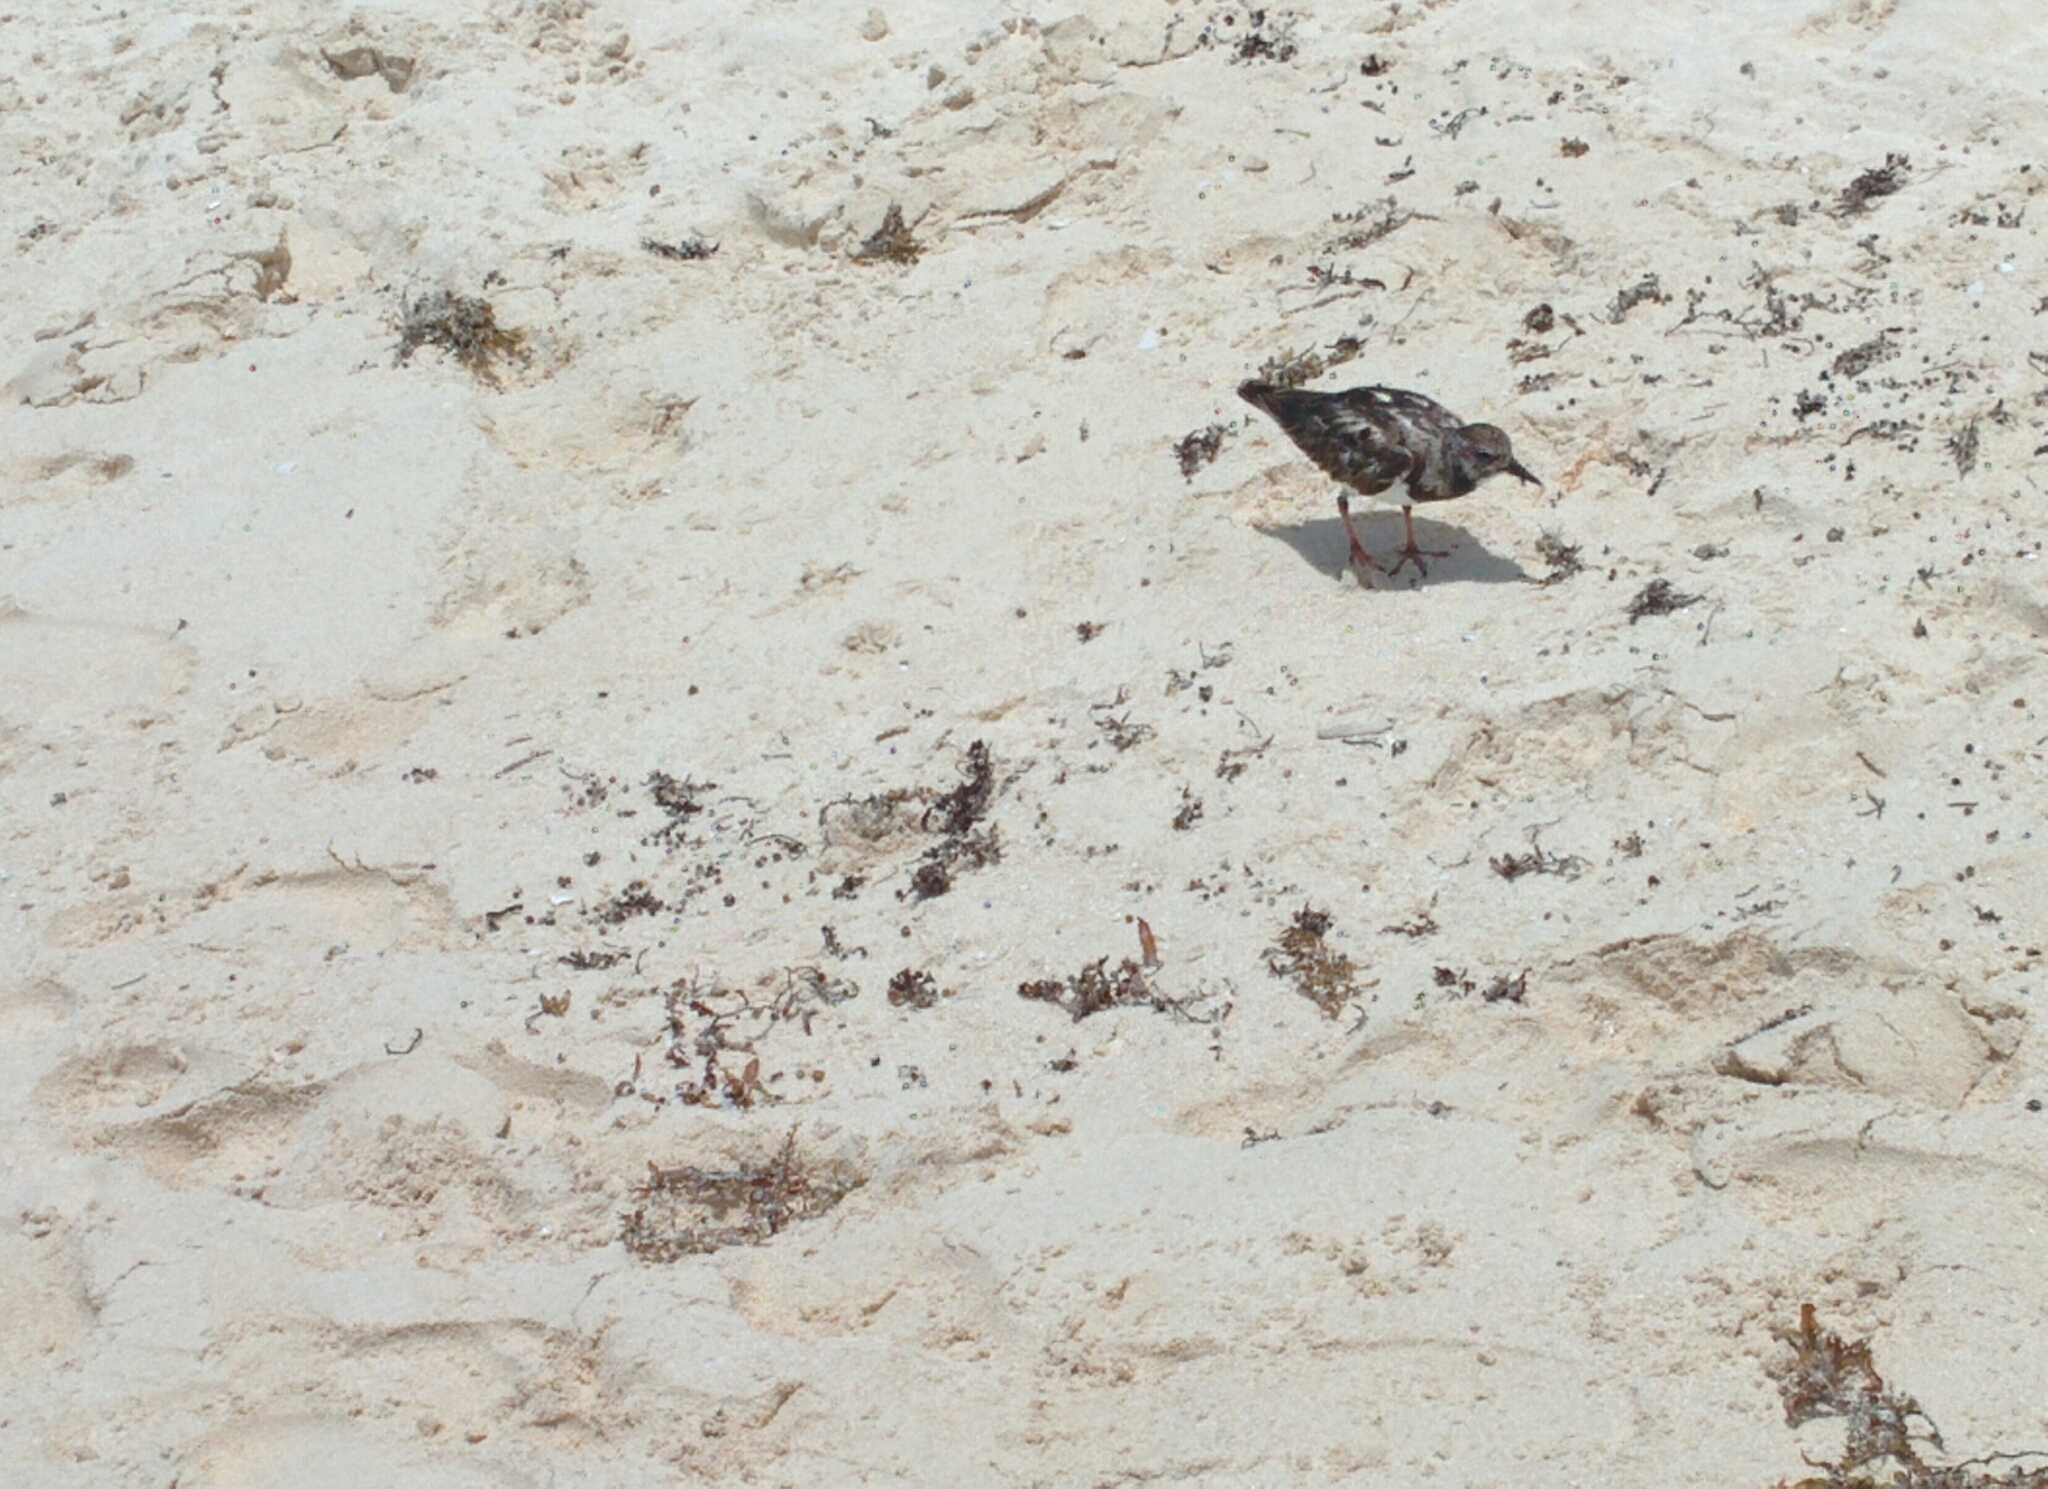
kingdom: Animalia
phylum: Chordata
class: Aves
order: Charadriiformes
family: Scolopacidae
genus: Arenaria
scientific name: Arenaria interpres
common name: Ruddy turnstone
